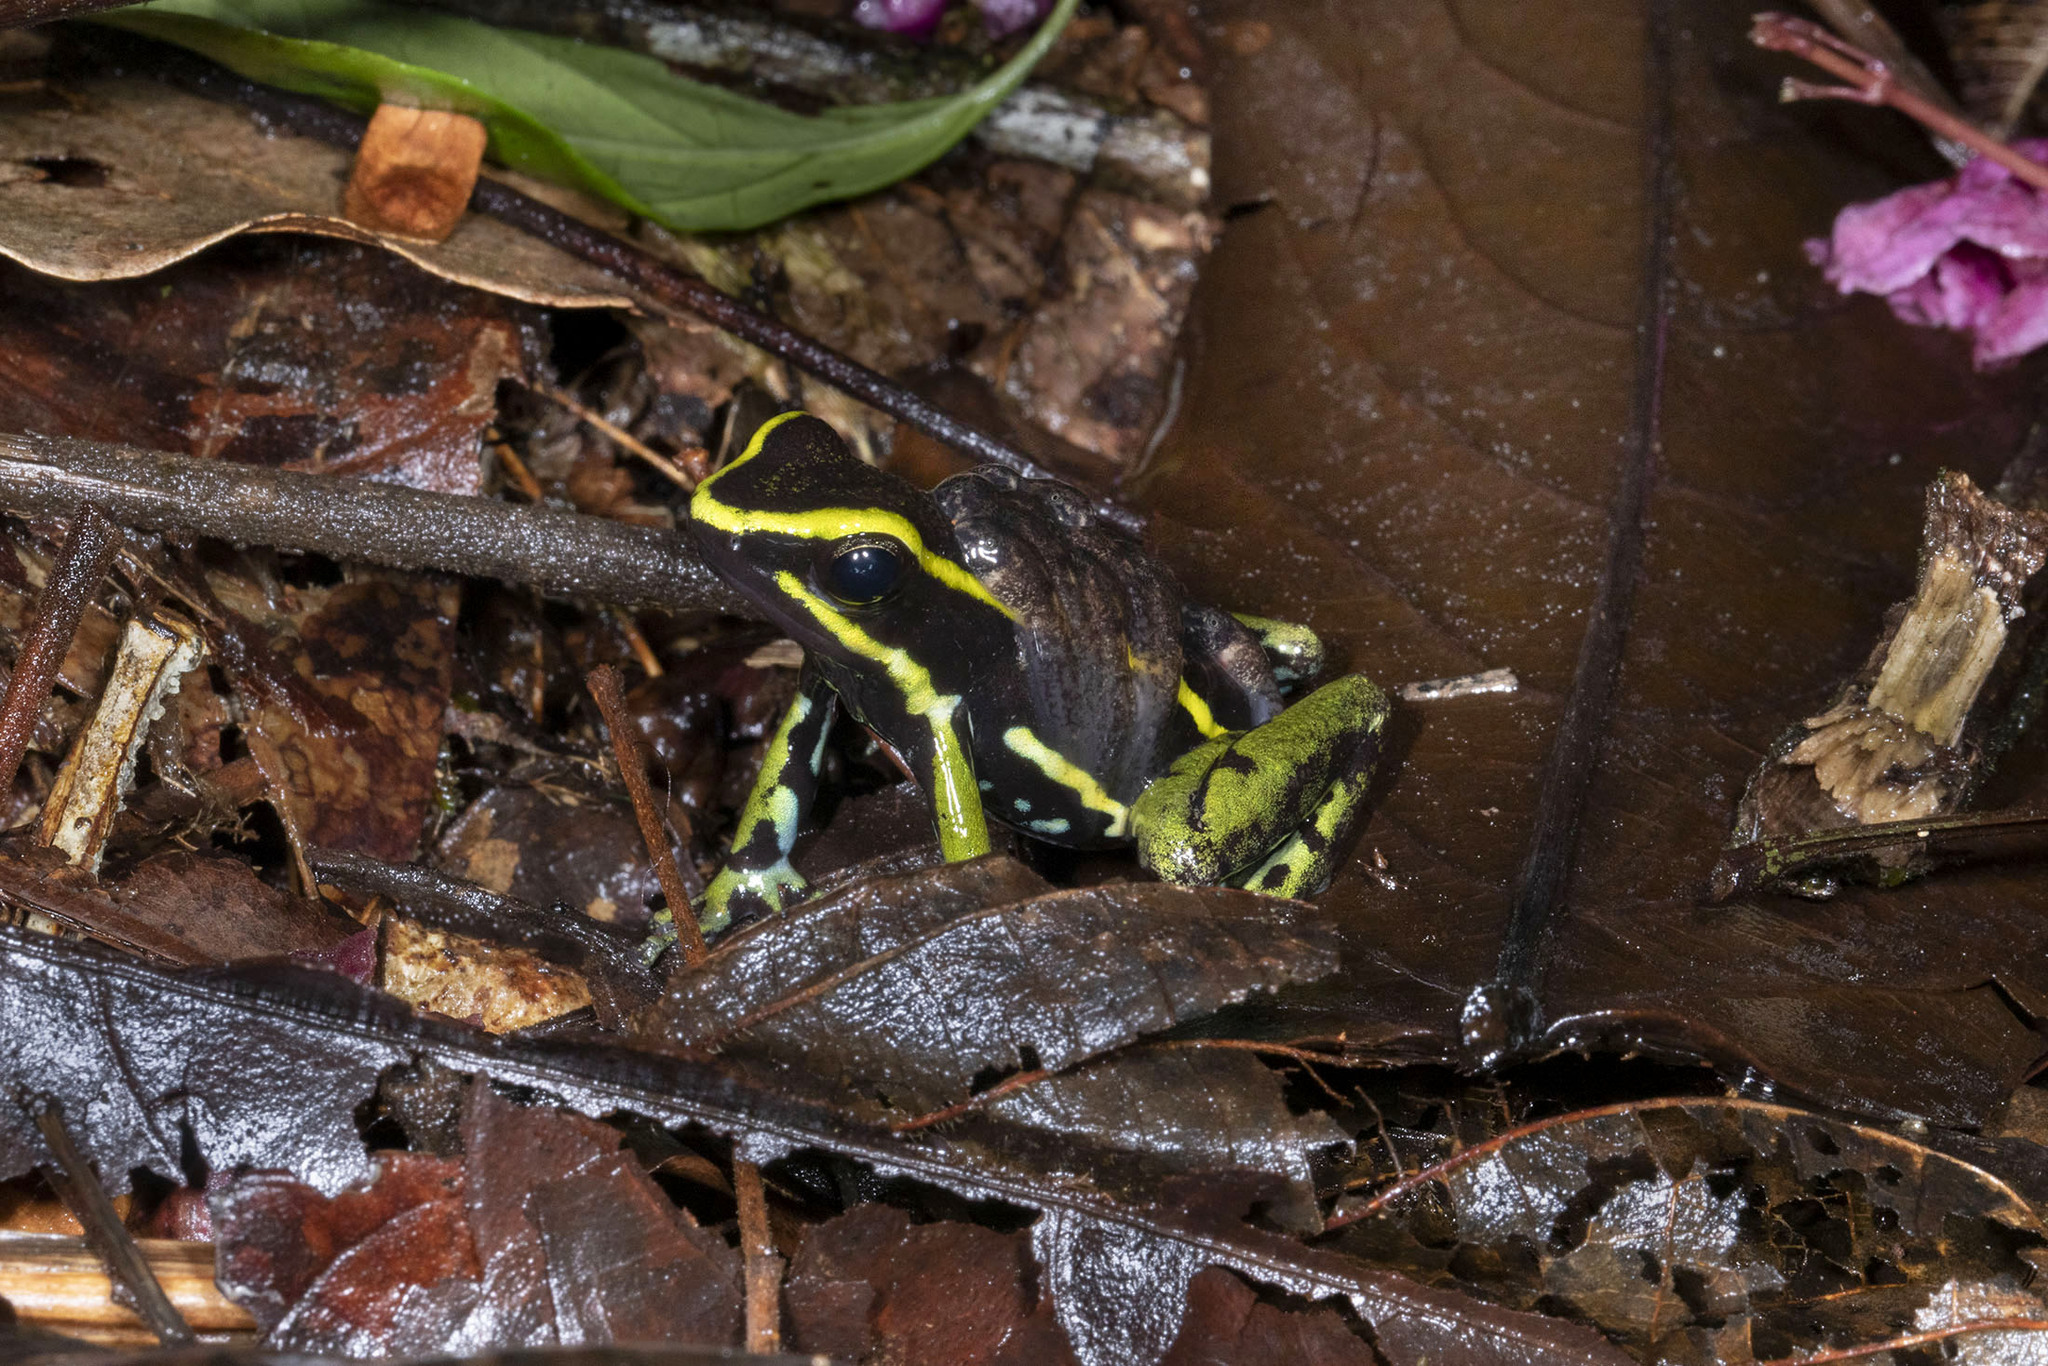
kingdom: Animalia
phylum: Chordata
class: Amphibia
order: Anura
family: Dendrobatidae
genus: Ameerega
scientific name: Ameerega trivittata
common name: Three-striped arrow-poison frog
